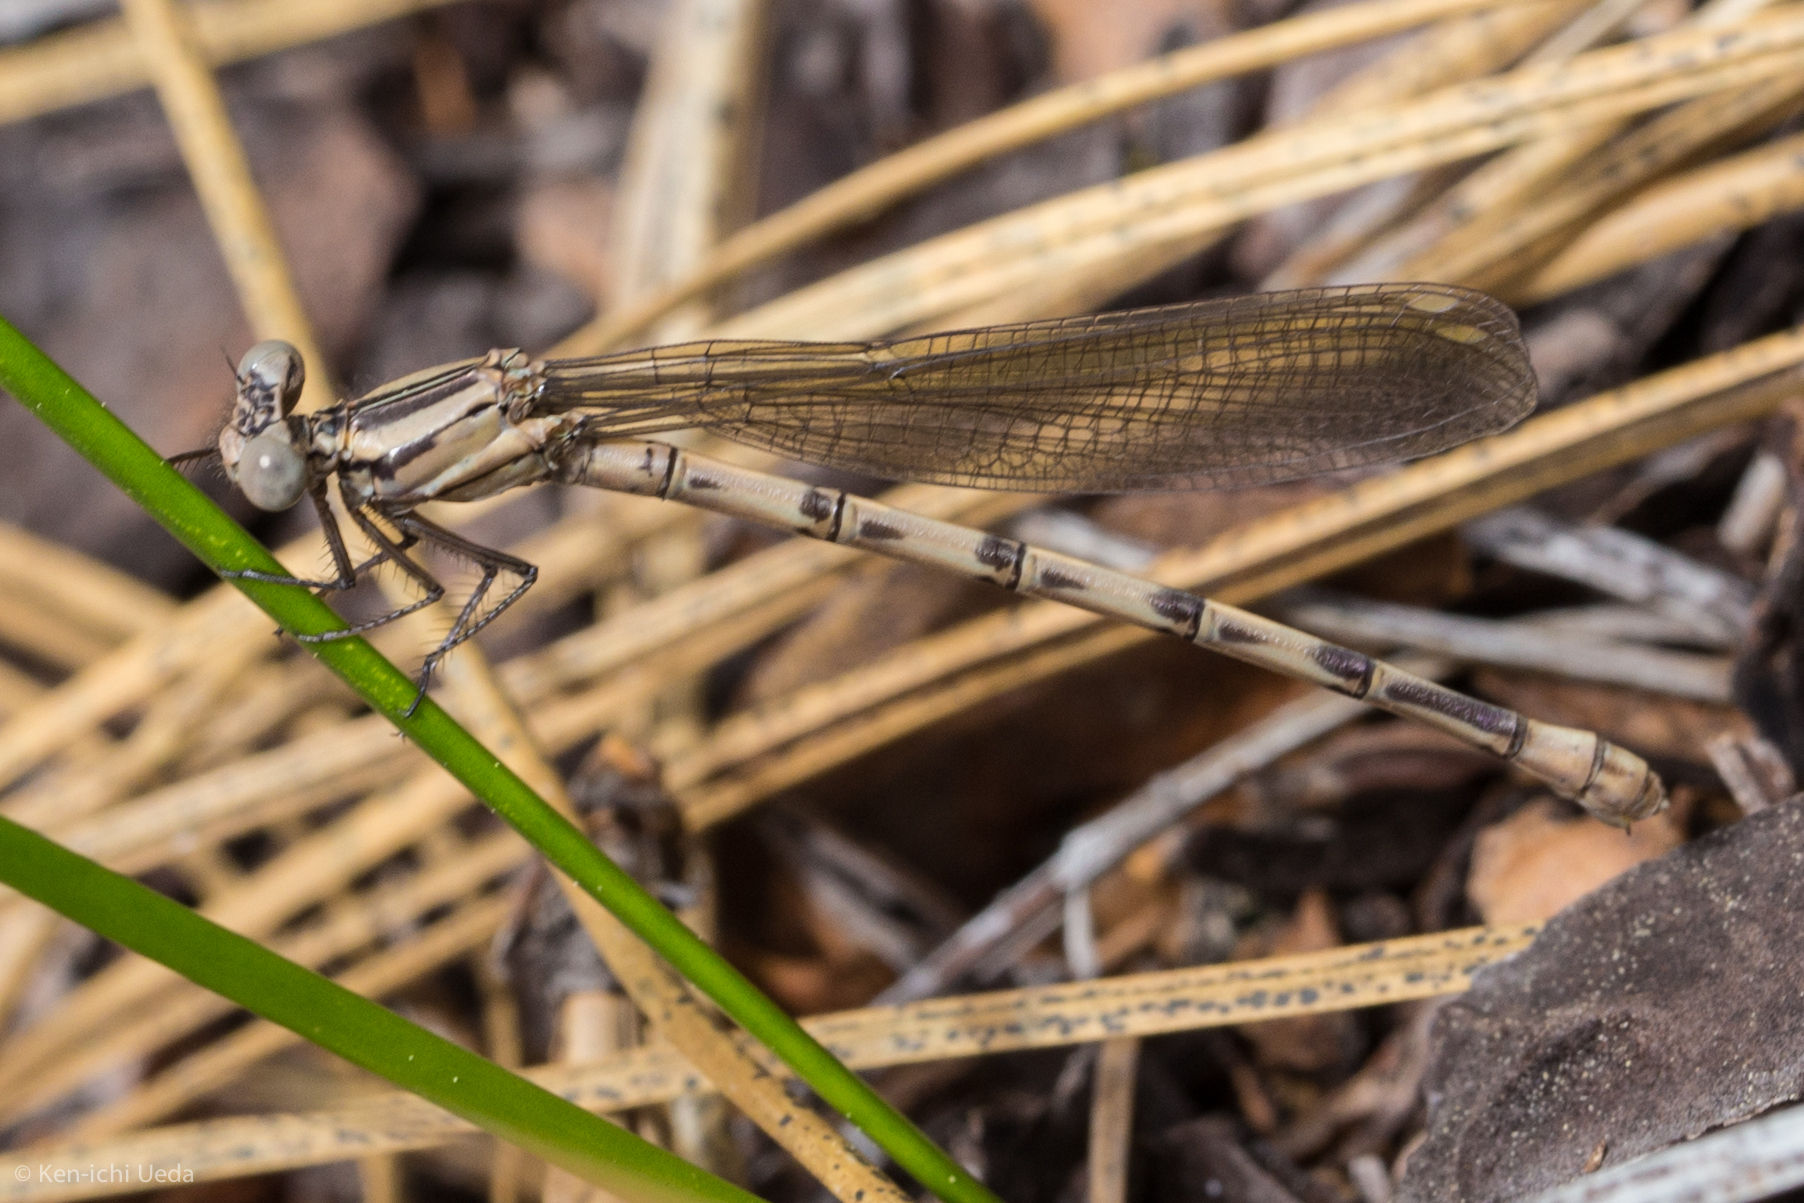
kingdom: Animalia
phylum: Arthropoda
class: Insecta
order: Odonata
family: Coenagrionidae
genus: Argia
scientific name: Argia vivida
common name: Vivid dancer
